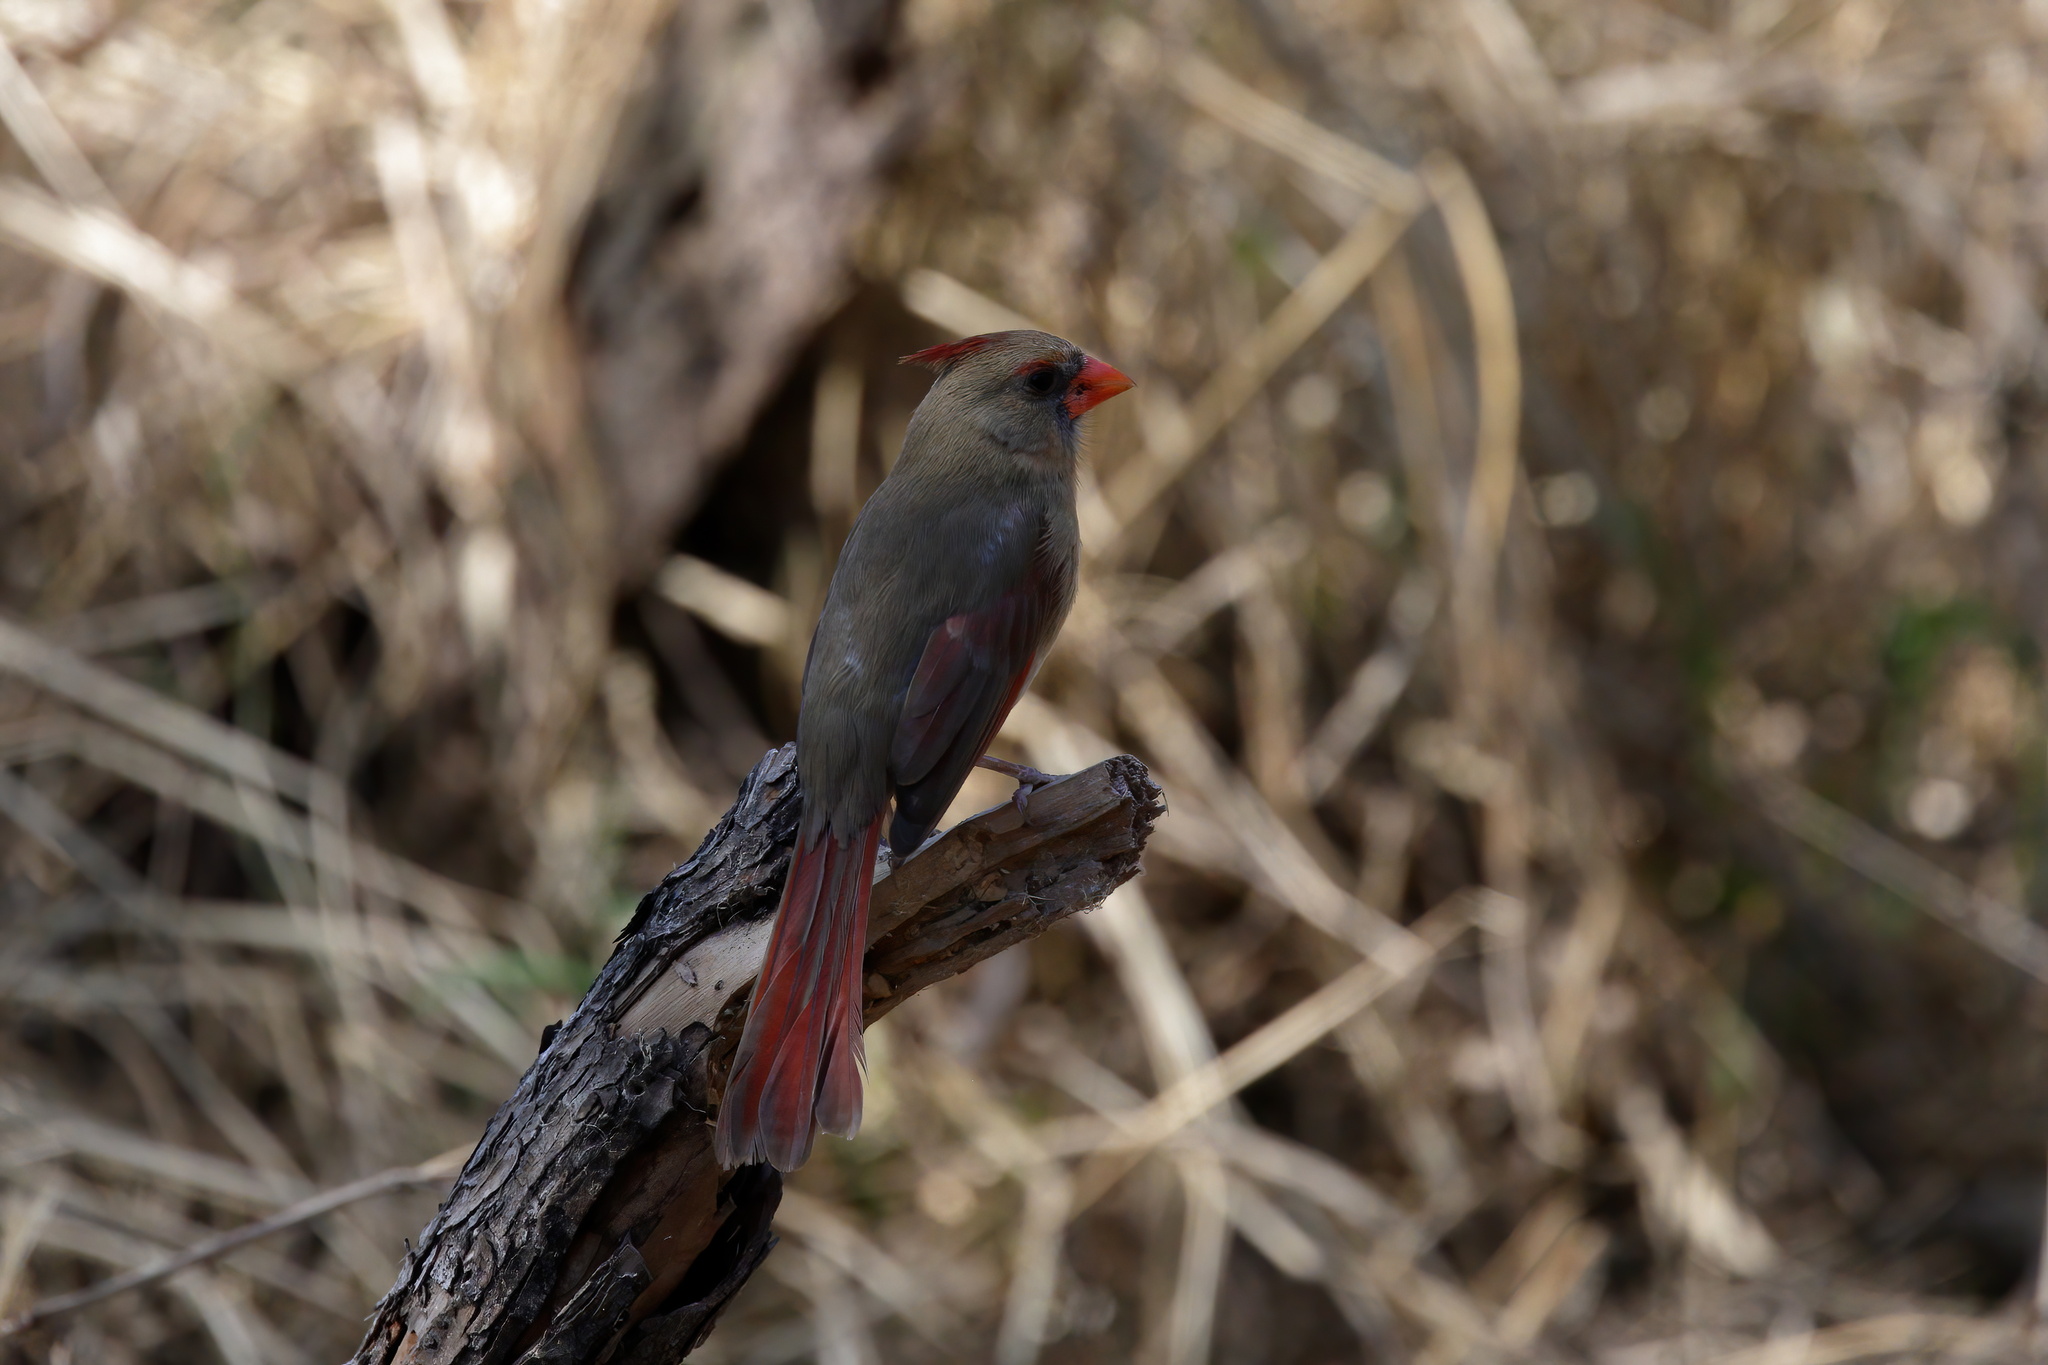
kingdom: Animalia
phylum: Chordata
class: Aves
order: Passeriformes
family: Cardinalidae
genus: Cardinalis
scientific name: Cardinalis cardinalis
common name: Northern cardinal
